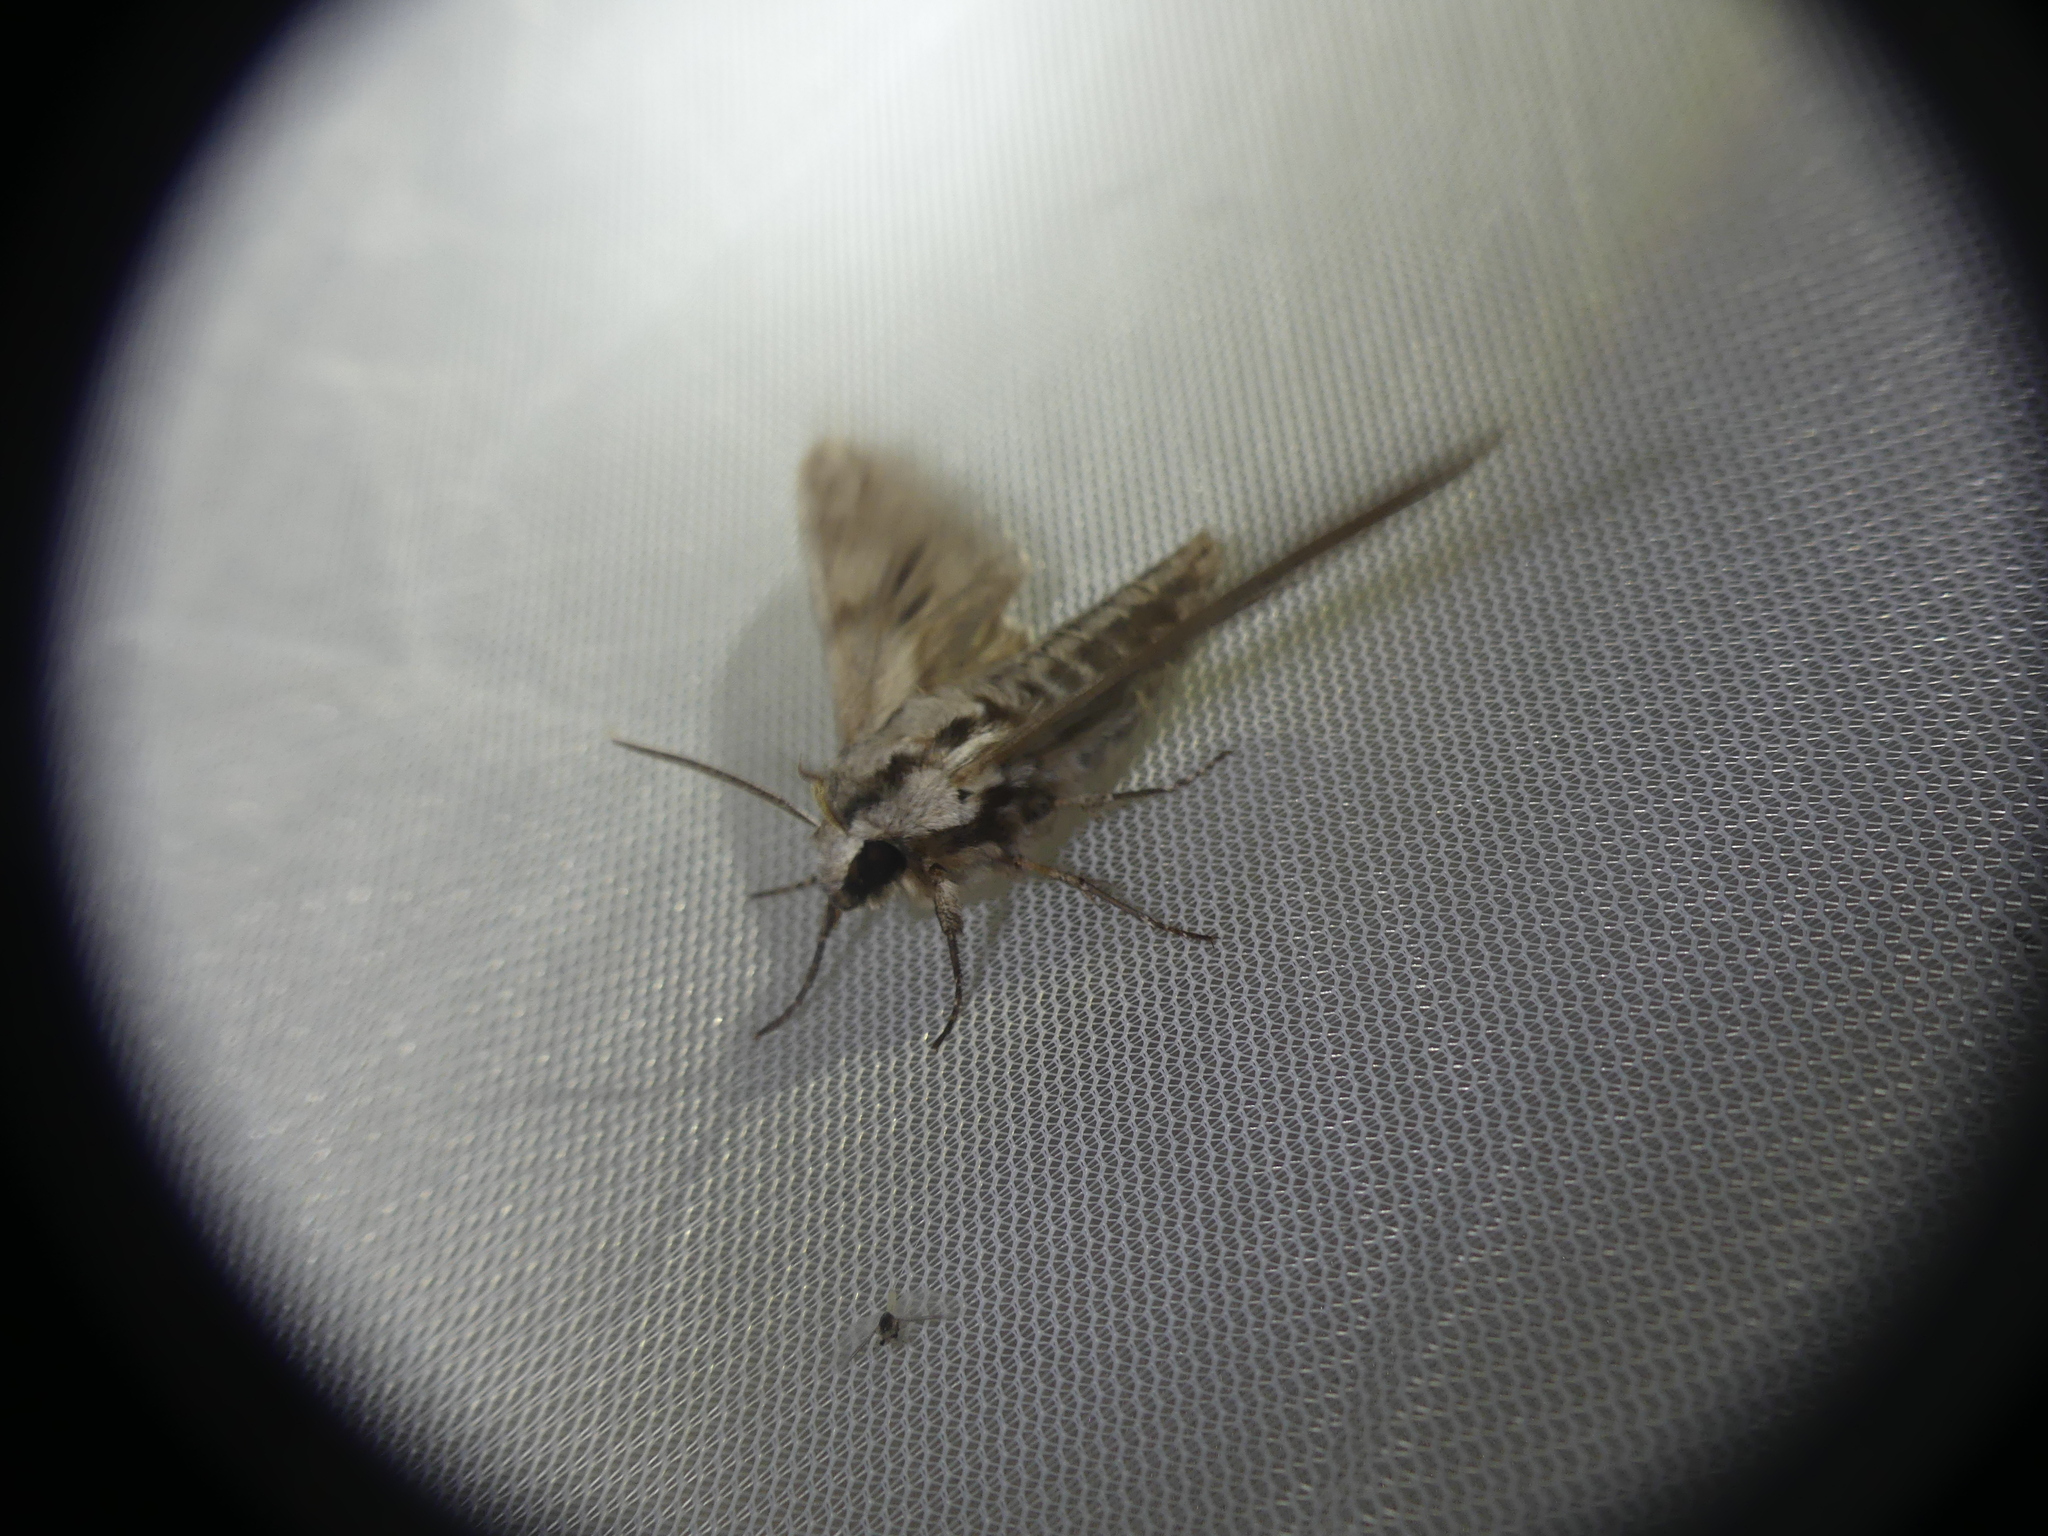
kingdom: Animalia
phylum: Arthropoda
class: Insecta
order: Lepidoptera
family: Sphingidae
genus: Sphinx
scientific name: Sphinx pinastri
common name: Pine hawk-moth
